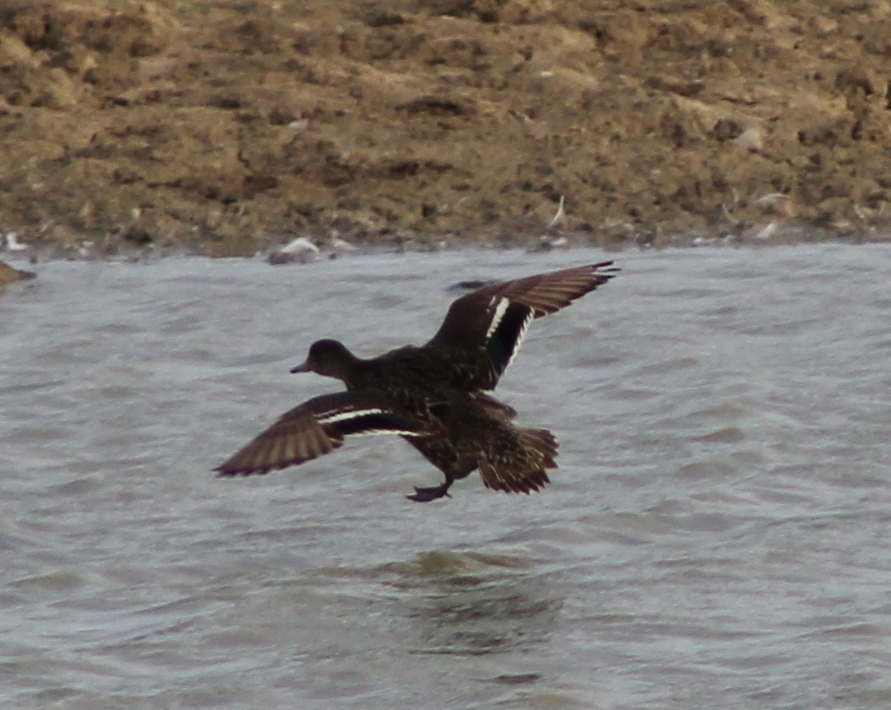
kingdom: Animalia
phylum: Chordata
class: Aves
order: Anseriformes
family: Anatidae
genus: Anas
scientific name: Anas crecca
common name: Eurasian teal
